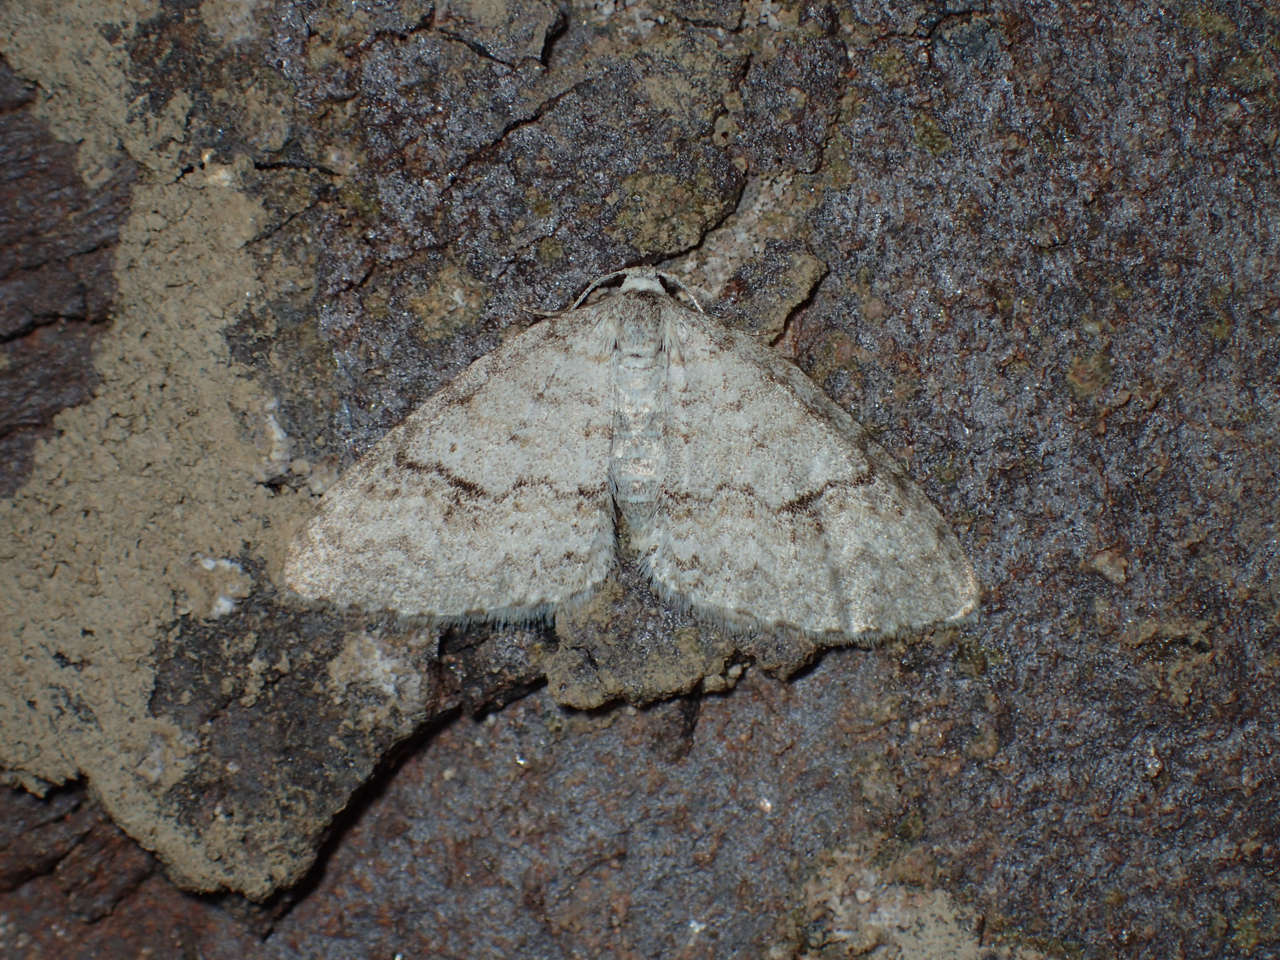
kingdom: Animalia
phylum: Arthropoda
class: Insecta
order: Lepidoptera
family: Geometridae
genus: Venusia
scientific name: Venusia comptaria
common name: Brown-shaded carpet
